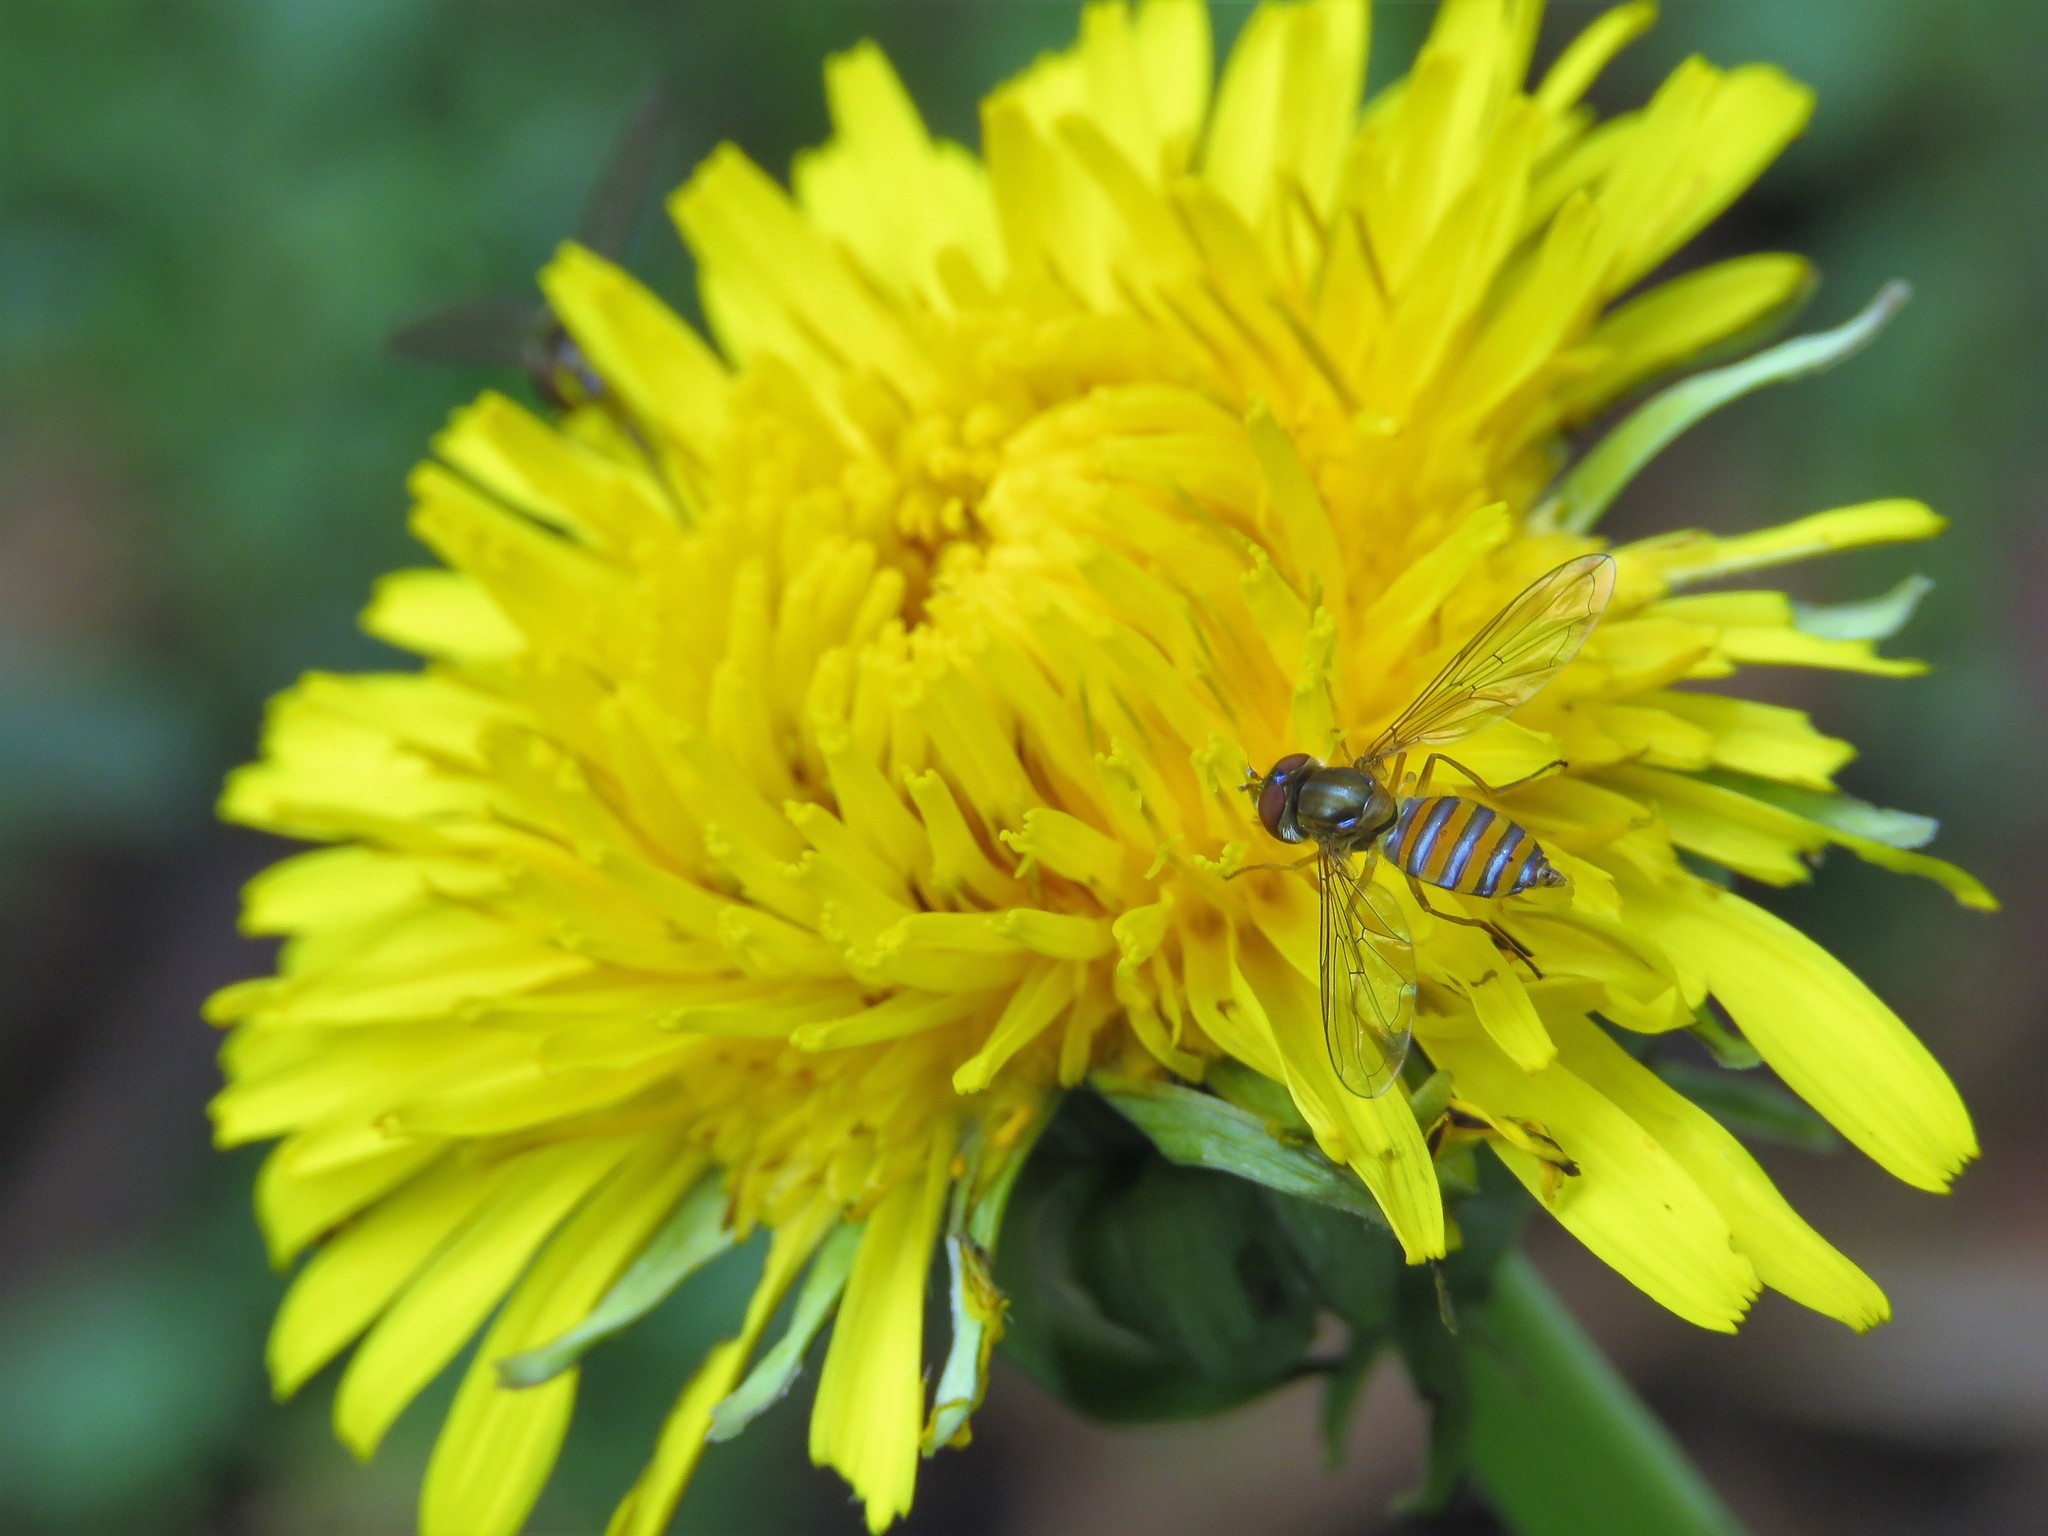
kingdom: Animalia
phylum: Arthropoda
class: Insecta
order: Diptera
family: Syrphidae
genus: Toxomerus
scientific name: Toxomerus
